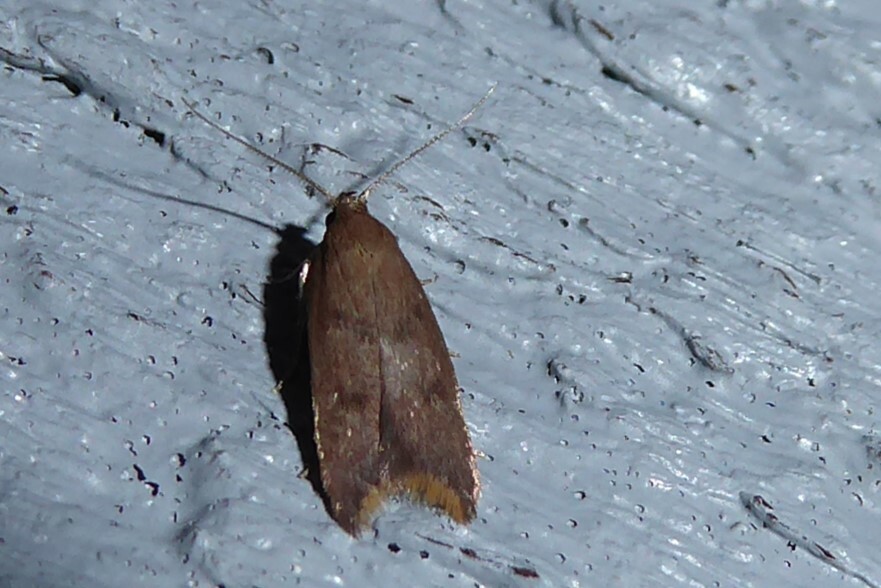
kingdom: Animalia
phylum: Arthropoda
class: Insecta
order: Lepidoptera
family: Oecophoridae
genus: Tachystola
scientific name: Tachystola acroxantha
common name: Ruddy streak
